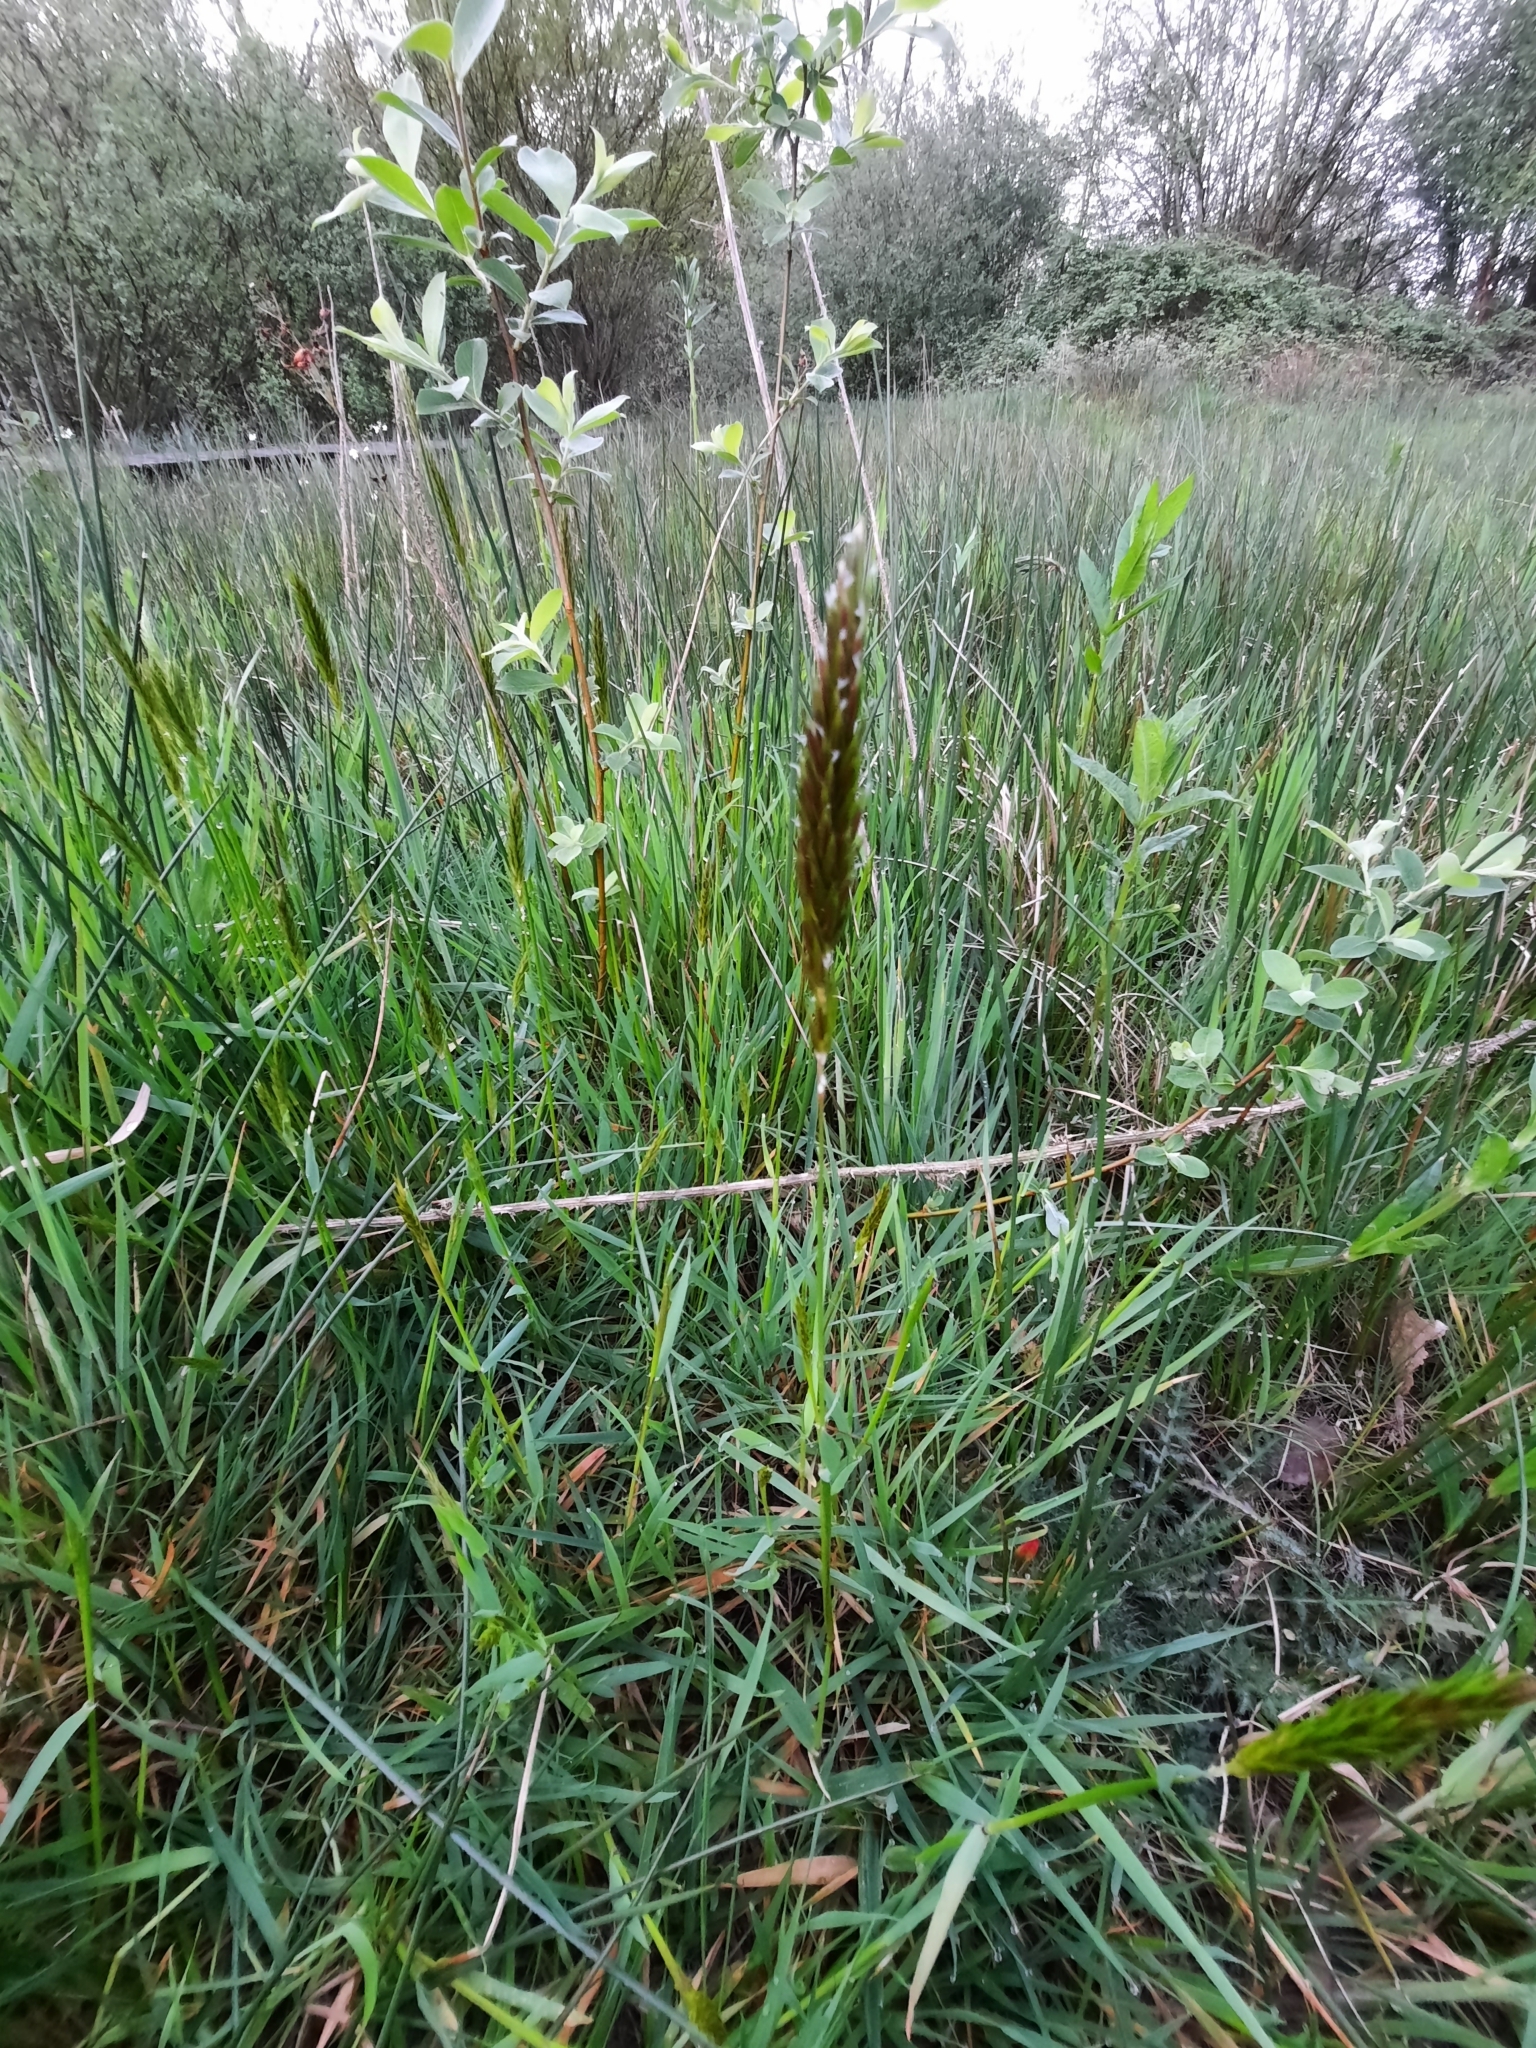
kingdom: Plantae
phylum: Tracheophyta
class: Liliopsida
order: Poales
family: Poaceae
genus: Anthoxanthum
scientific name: Anthoxanthum odoratum
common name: Sweet vernalgrass
